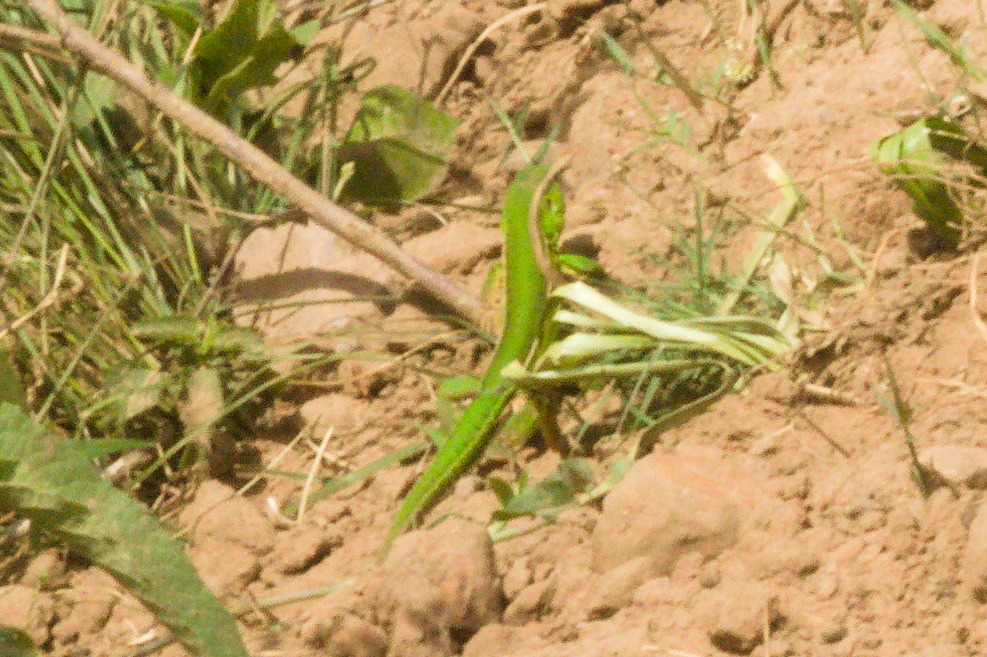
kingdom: Animalia
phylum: Chordata
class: Squamata
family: Teiidae
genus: Teius
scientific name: Teius oculatus
